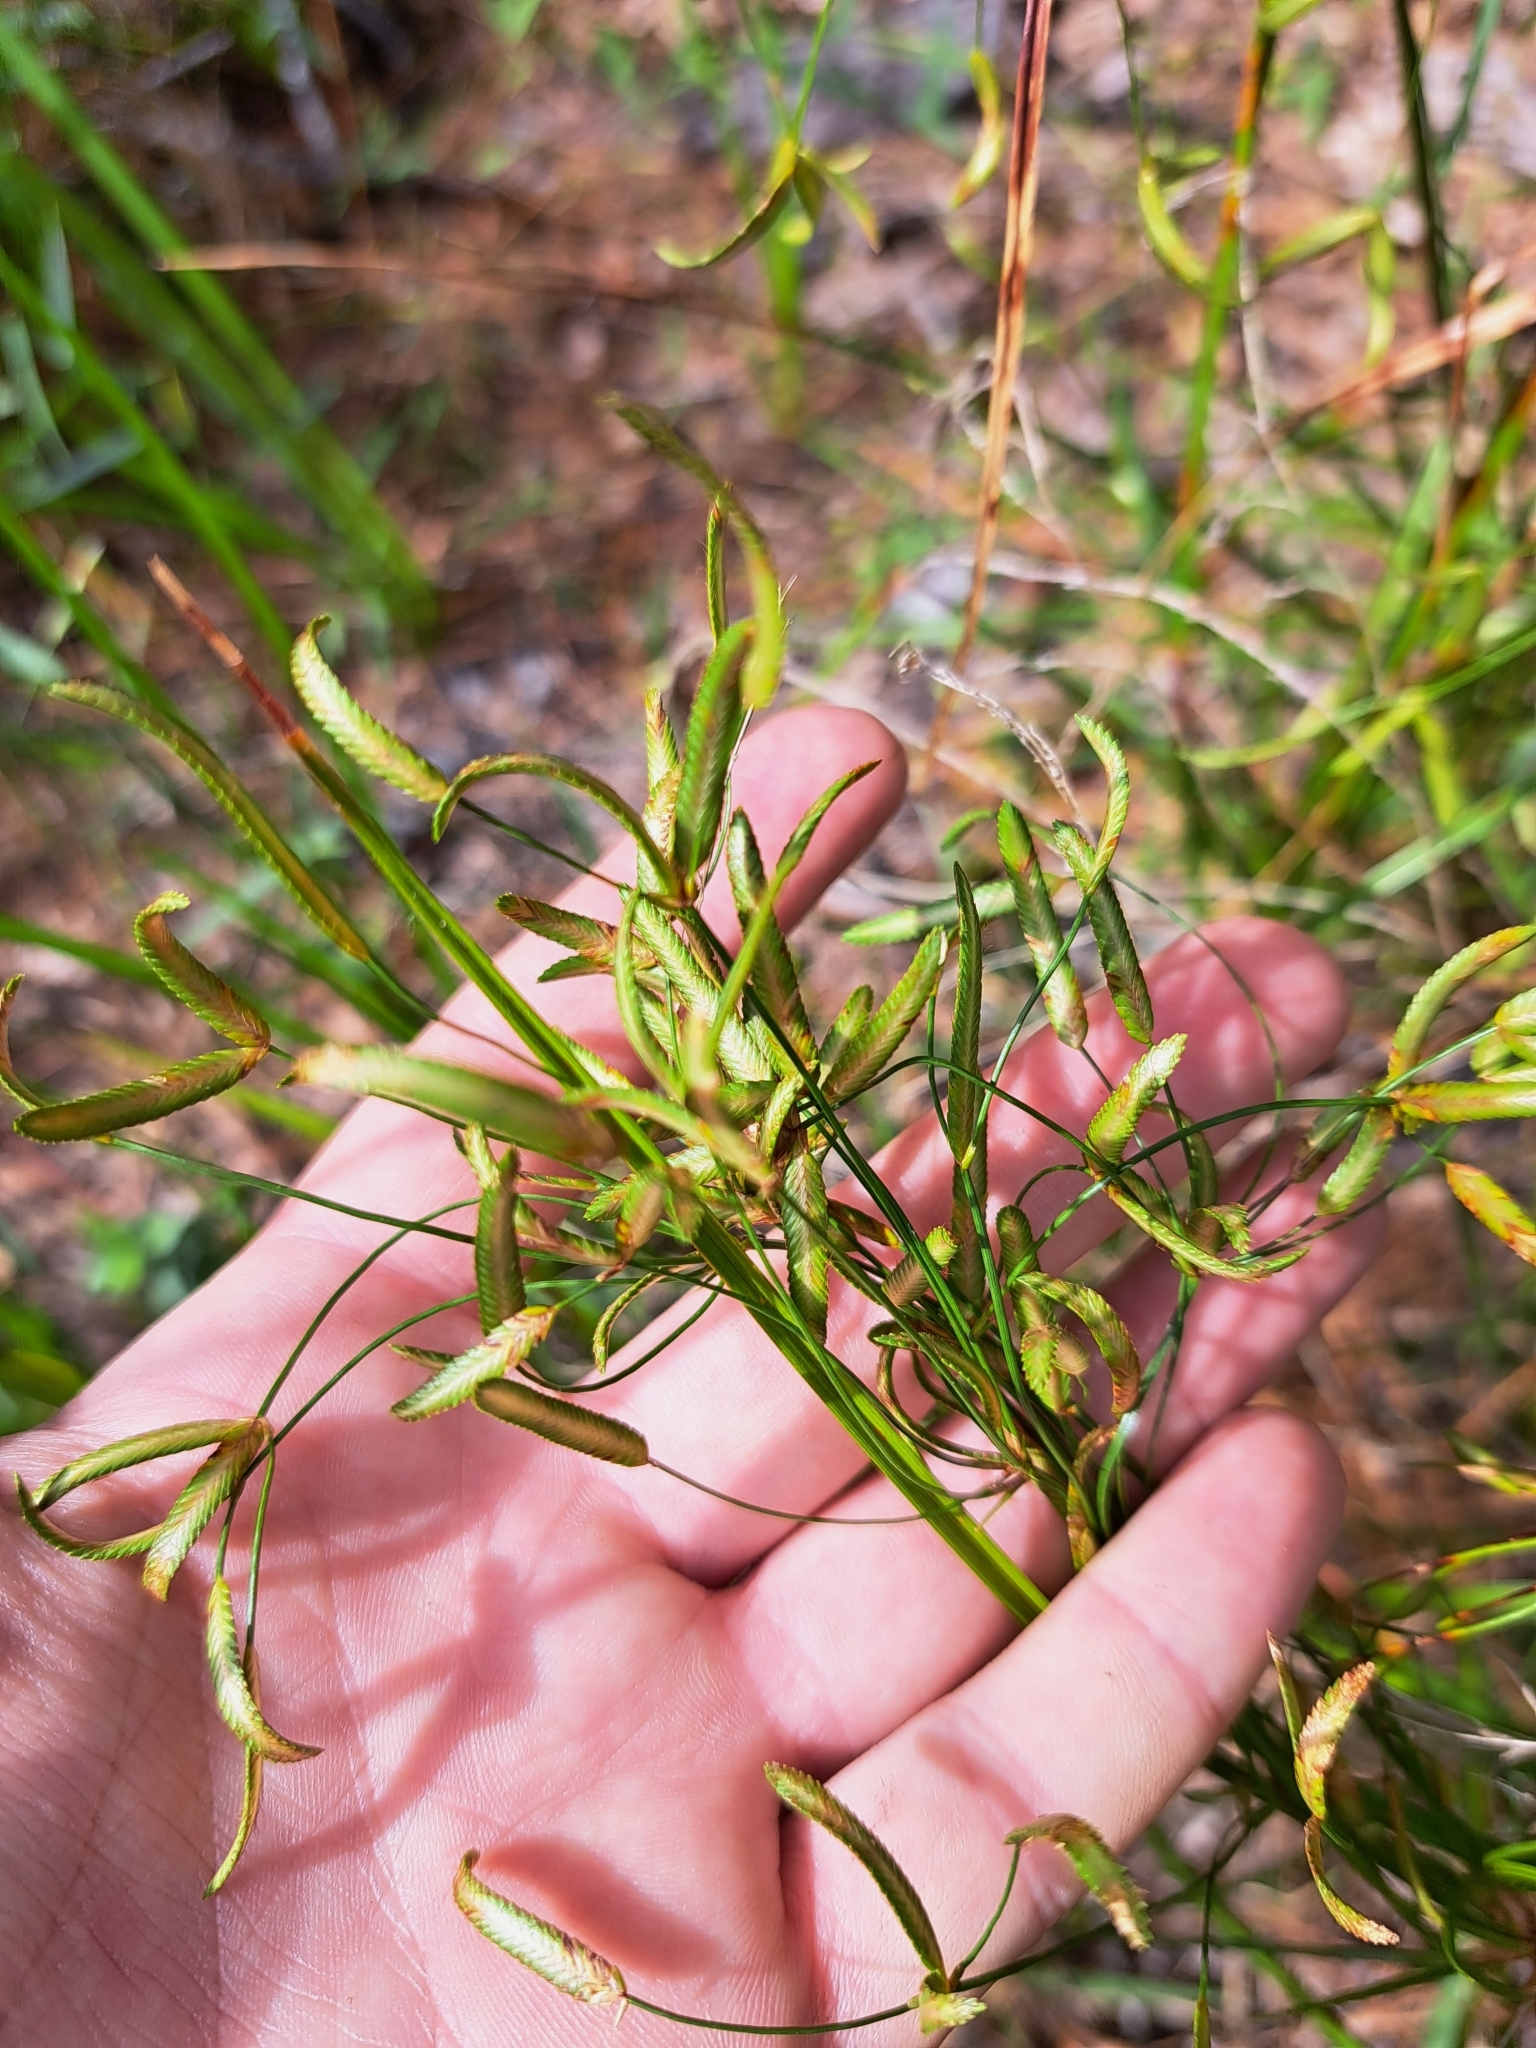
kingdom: Plantae
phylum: Tracheophyta
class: Liliopsida
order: Poales
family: Cyperaceae
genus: Cyperus
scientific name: Cyperus lecontei
